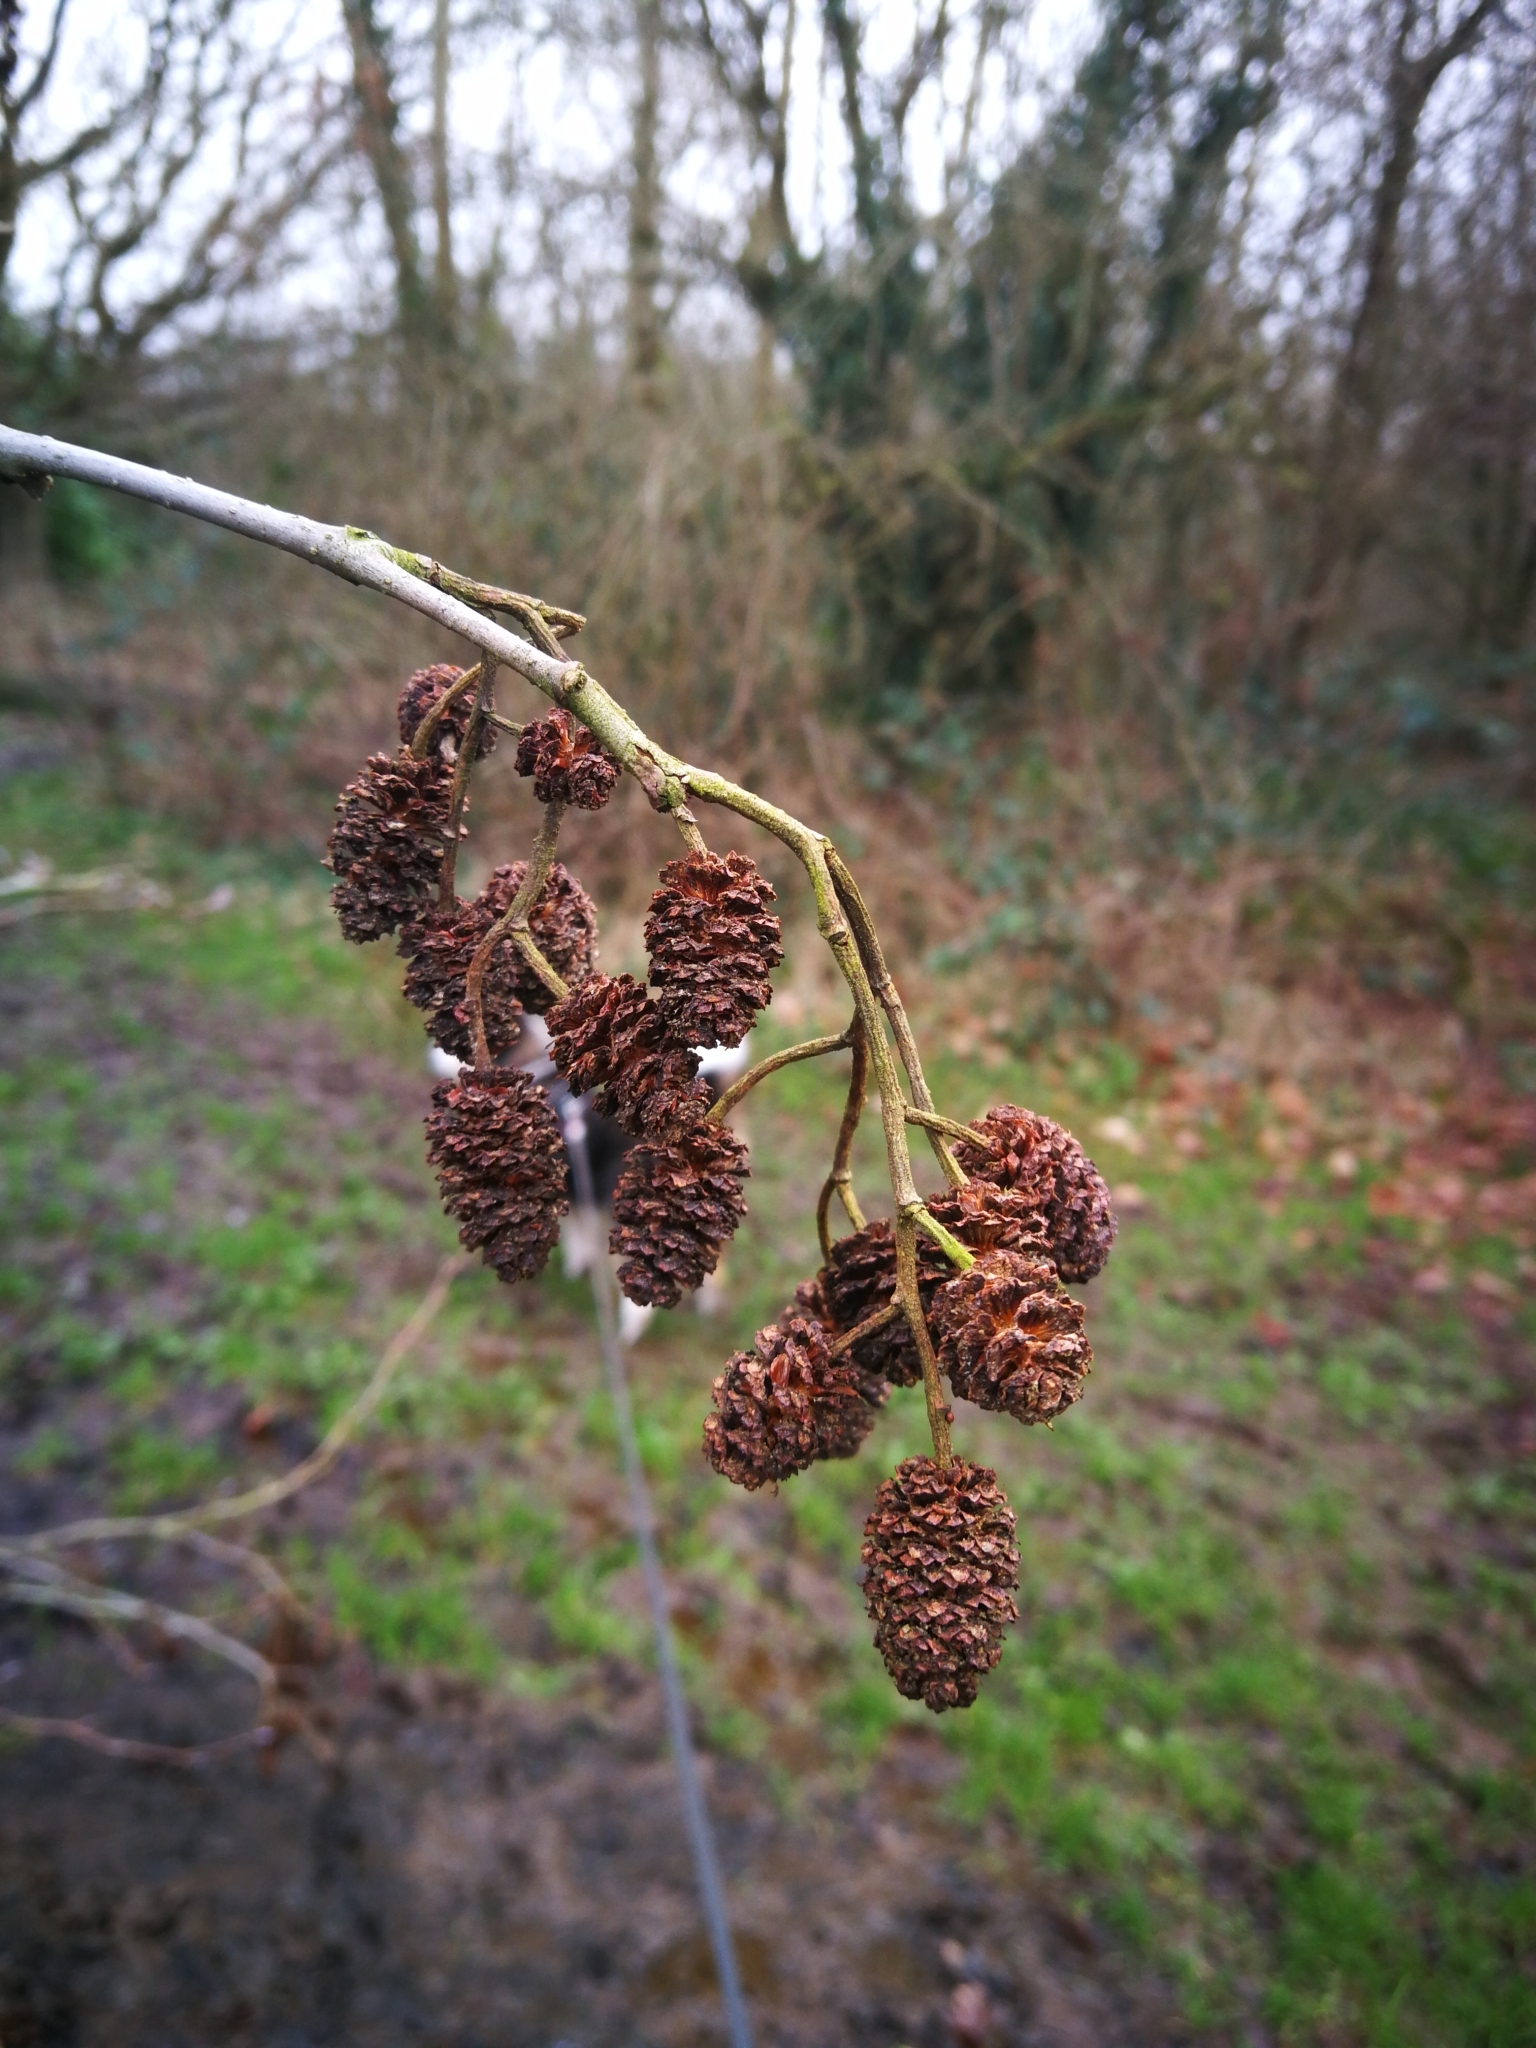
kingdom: Plantae
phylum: Tracheophyta
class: Magnoliopsida
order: Fagales
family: Betulaceae
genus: Alnus
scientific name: Alnus glutinosa
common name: Black alder
